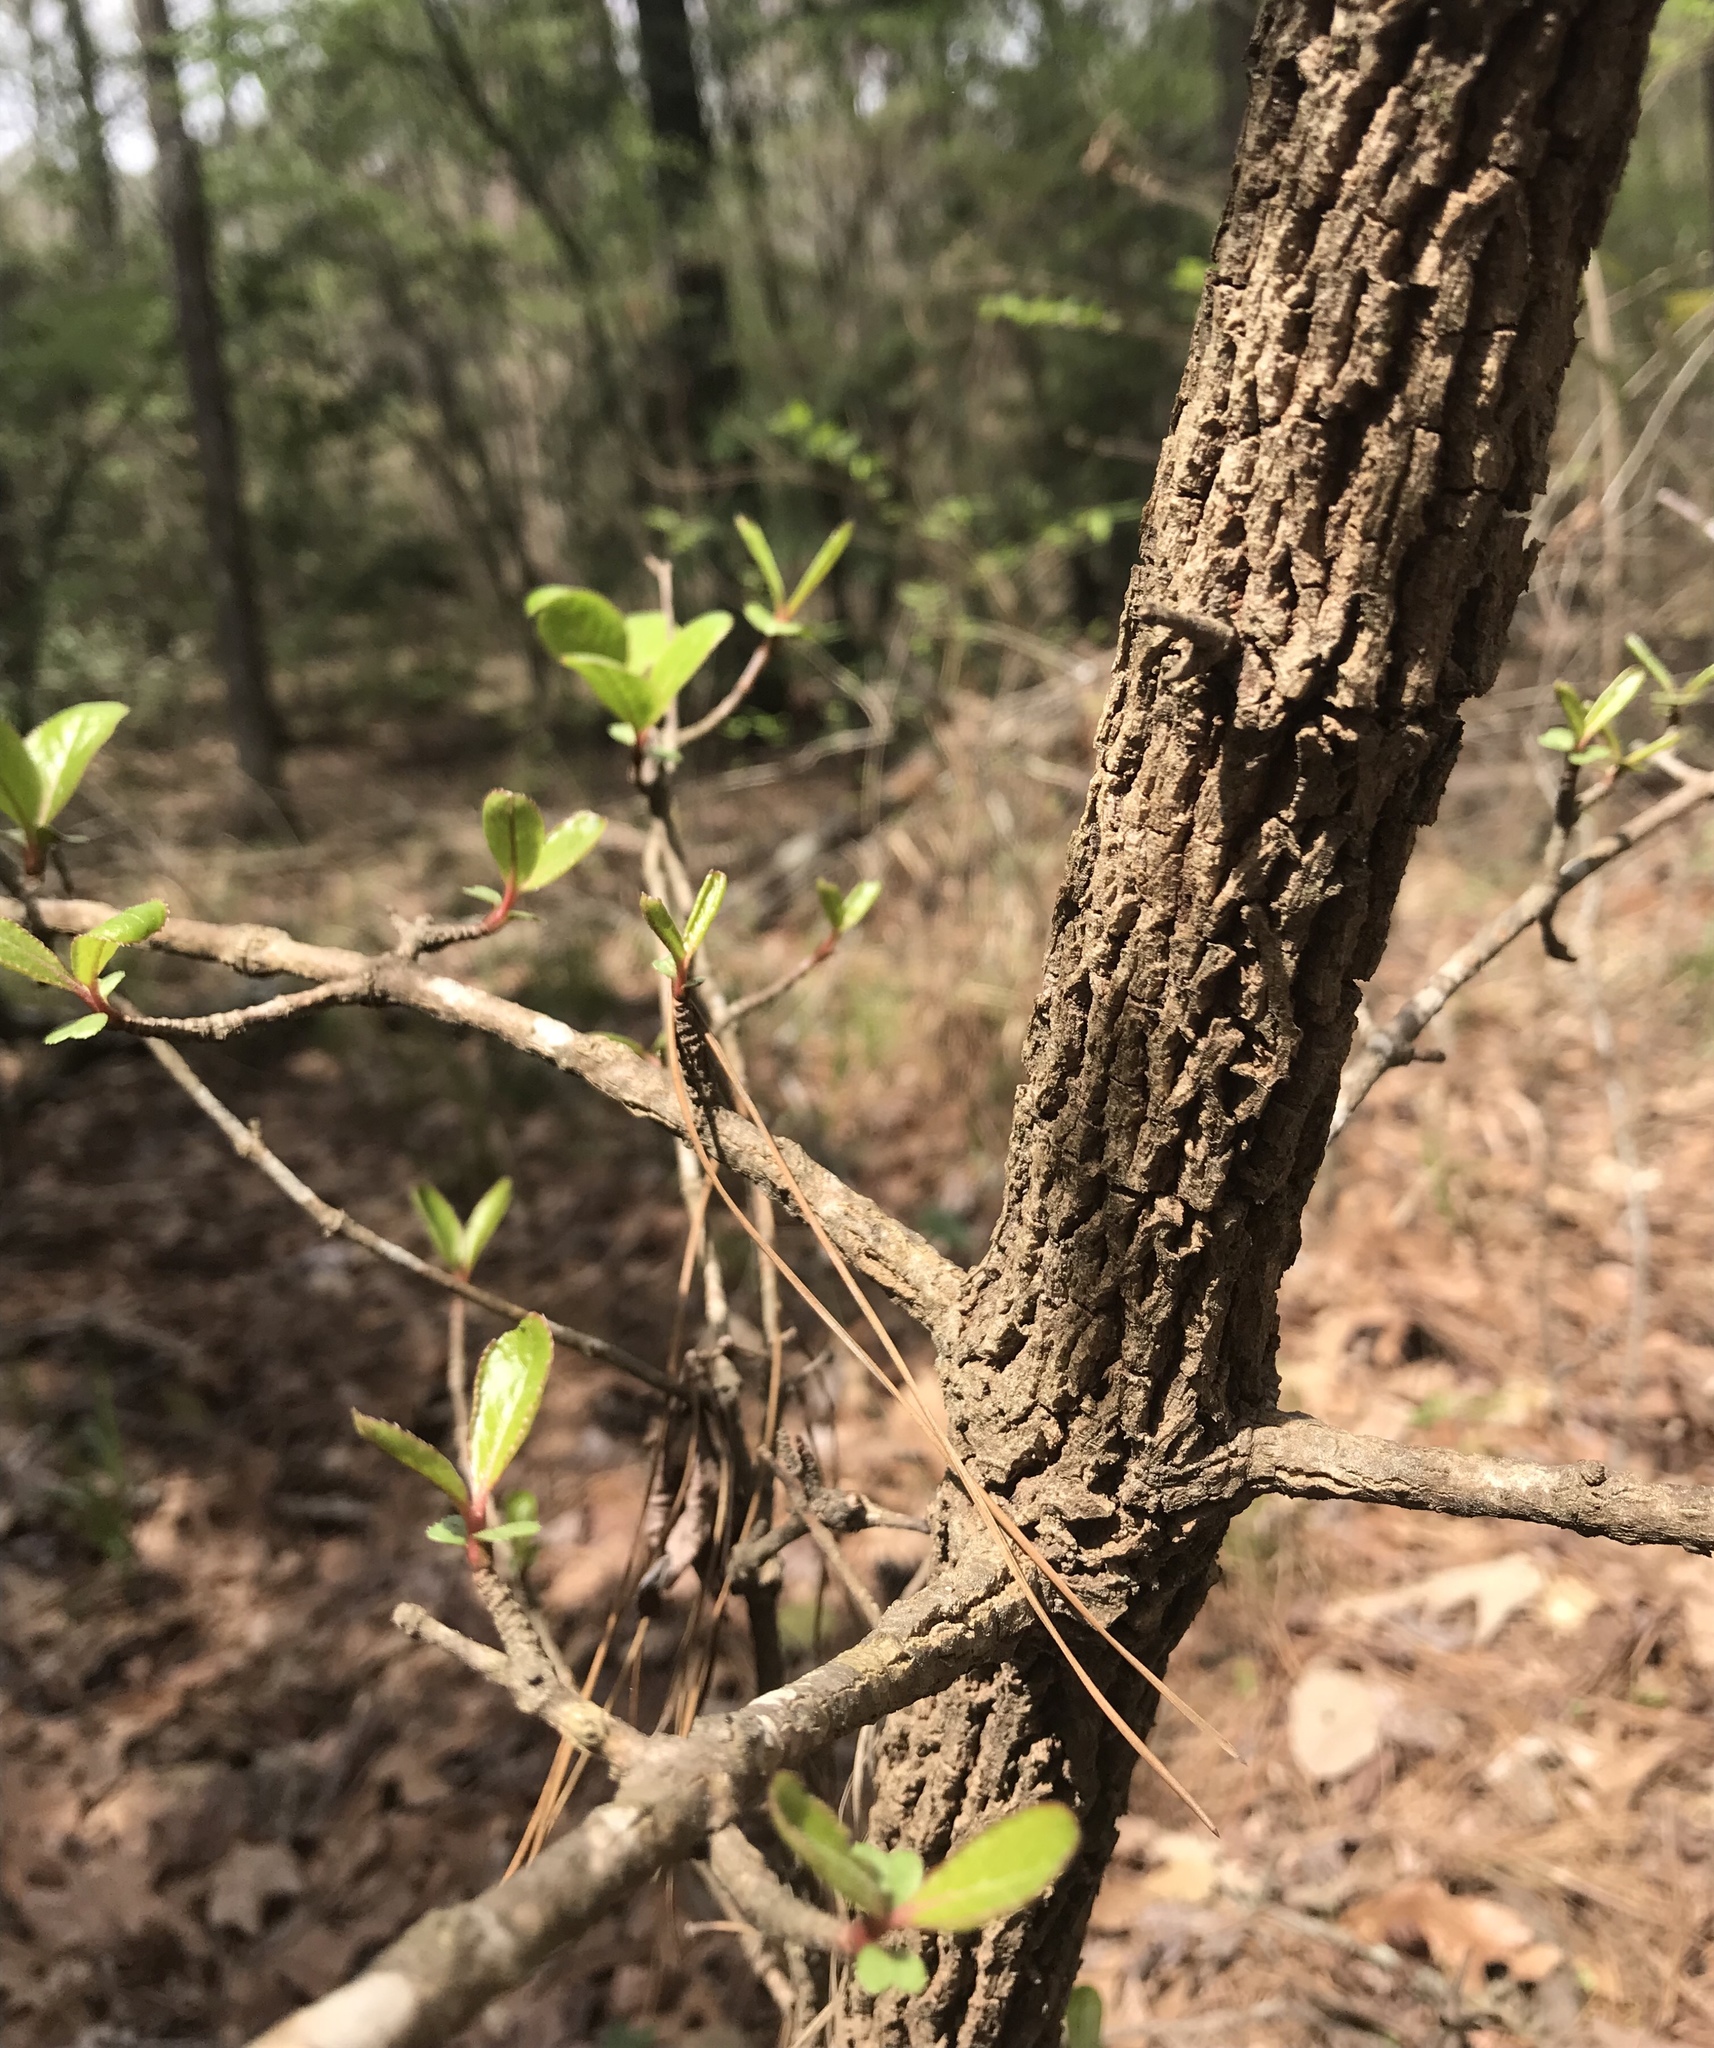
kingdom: Plantae
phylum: Tracheophyta
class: Magnoliopsida
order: Dipsacales
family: Viburnaceae
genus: Viburnum
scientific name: Viburnum rufidulum
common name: Blue haw
